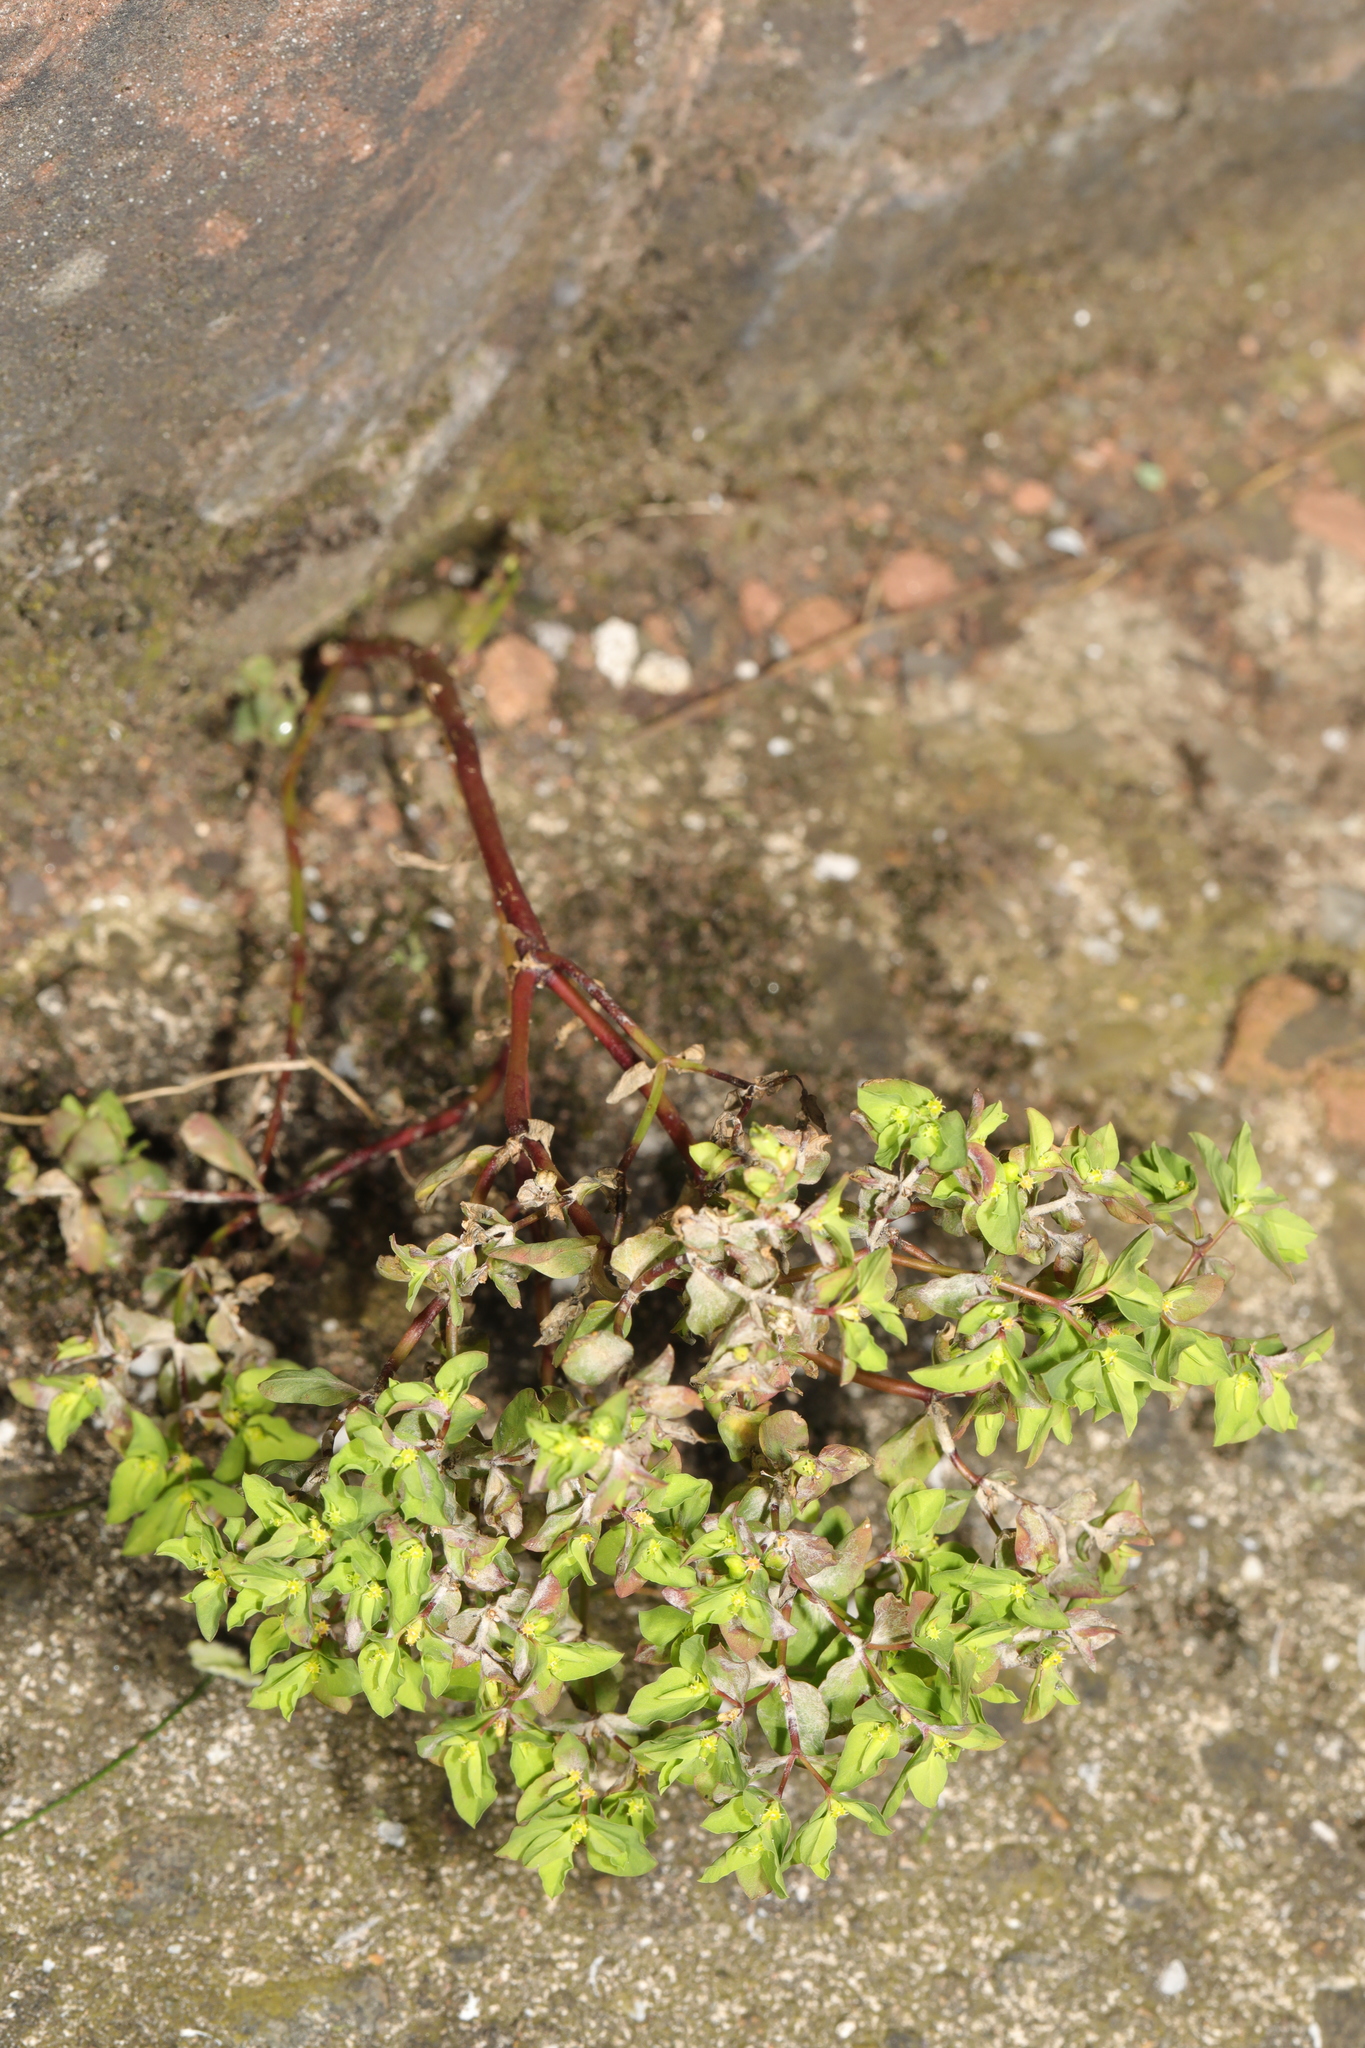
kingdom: Plantae
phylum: Tracheophyta
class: Magnoliopsida
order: Malpighiales
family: Euphorbiaceae
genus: Euphorbia
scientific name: Euphorbia peplus
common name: Petty spurge
